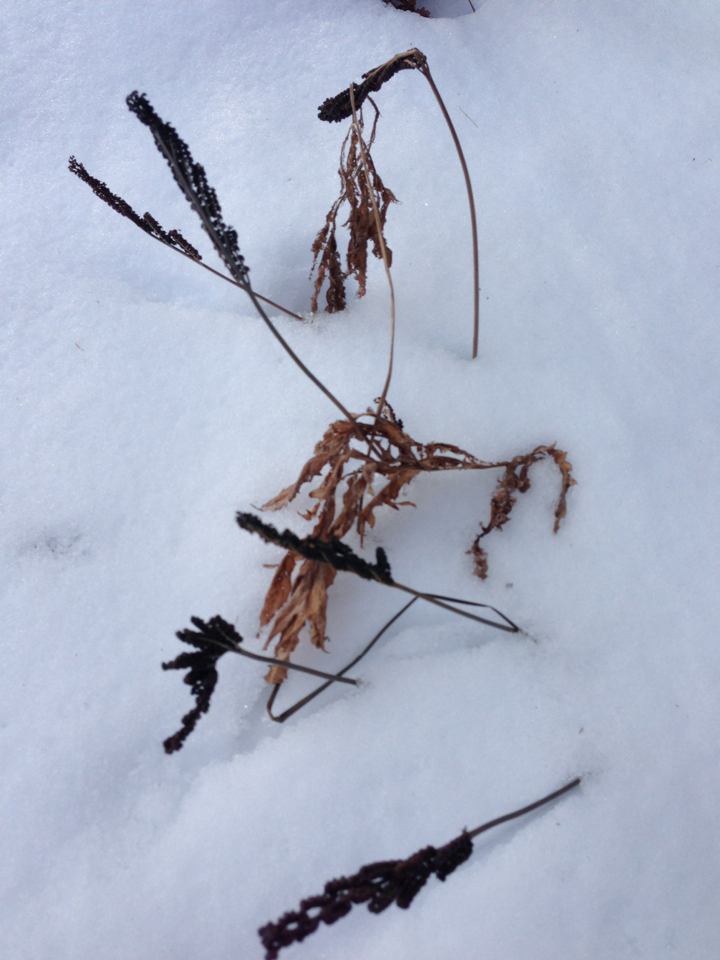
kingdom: Plantae
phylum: Tracheophyta
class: Polypodiopsida
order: Polypodiales
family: Onocleaceae
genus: Onoclea
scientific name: Onoclea sensibilis
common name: Sensitive fern
